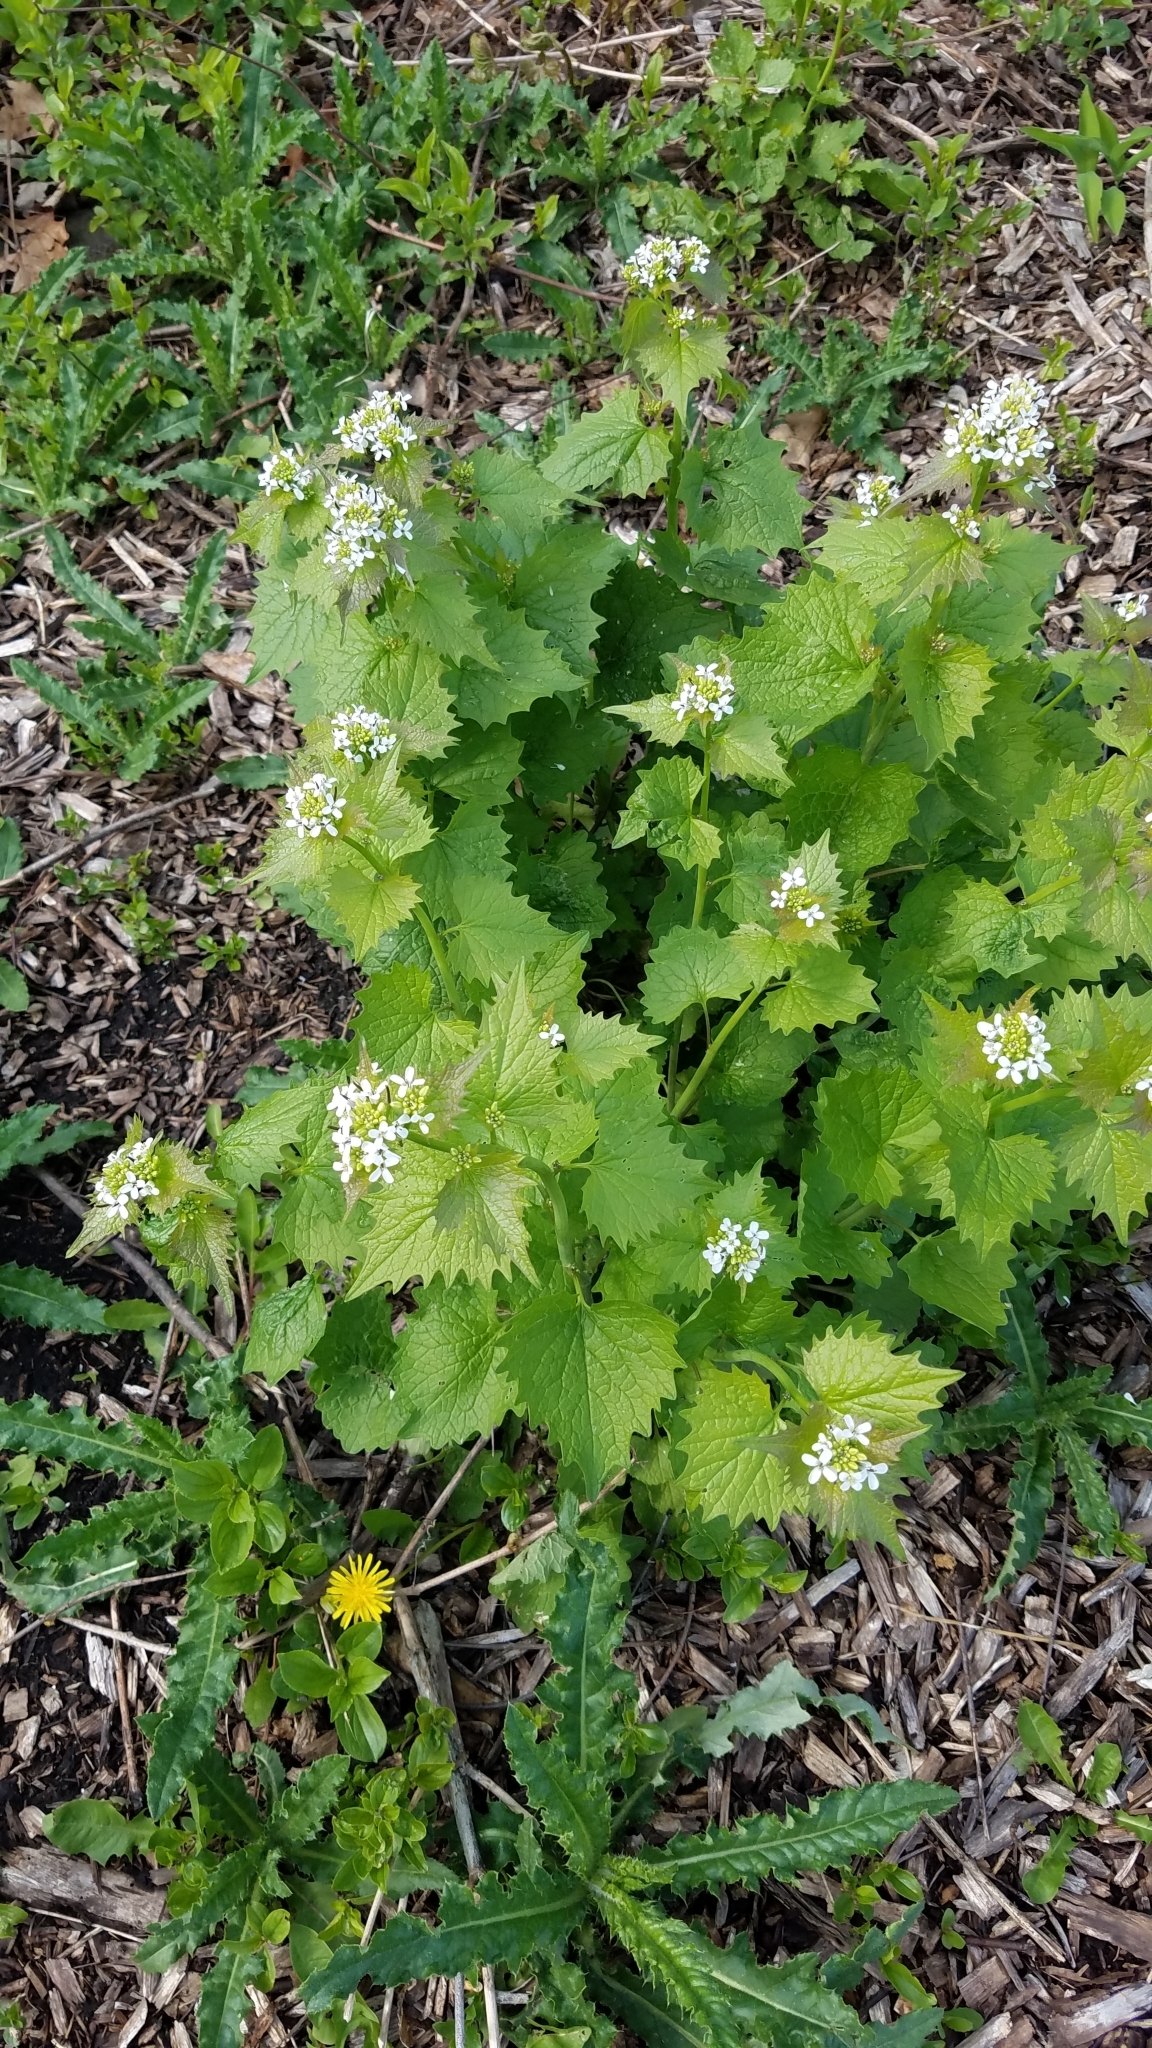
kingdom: Plantae
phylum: Tracheophyta
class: Magnoliopsida
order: Brassicales
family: Brassicaceae
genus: Alliaria
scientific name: Alliaria petiolata
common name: Garlic mustard
